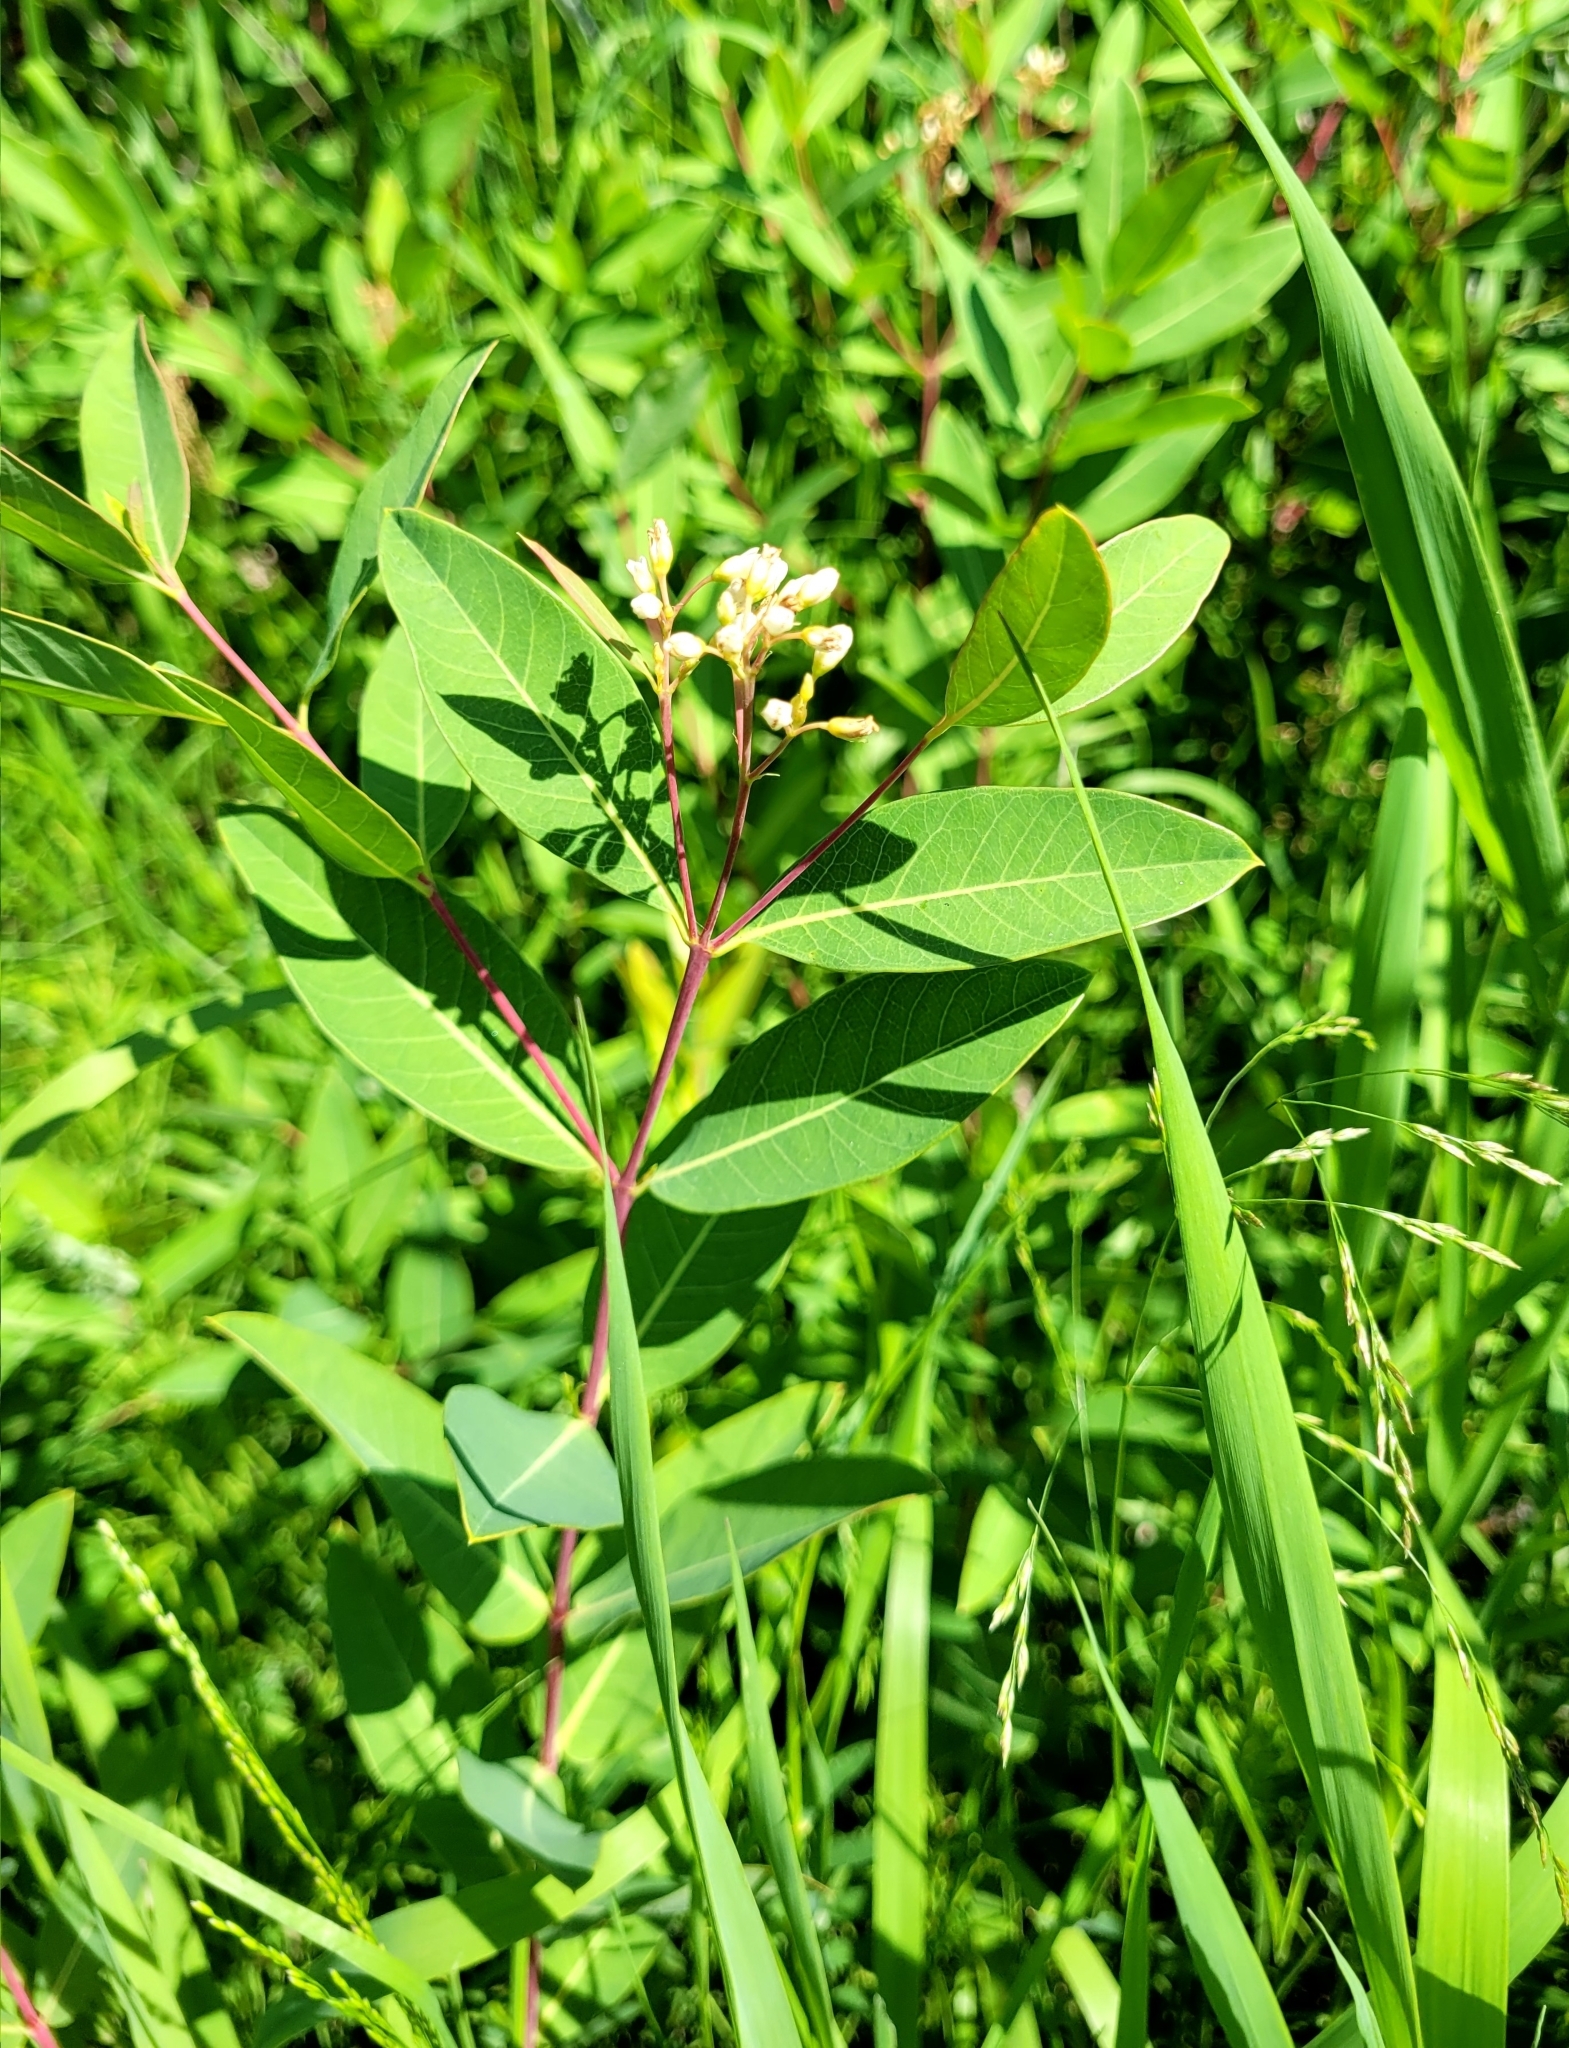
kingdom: Plantae
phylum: Tracheophyta
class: Magnoliopsida
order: Gentianales
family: Apocynaceae
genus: Apocynum
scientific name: Apocynum cannabinum
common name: Hemp dogbane
